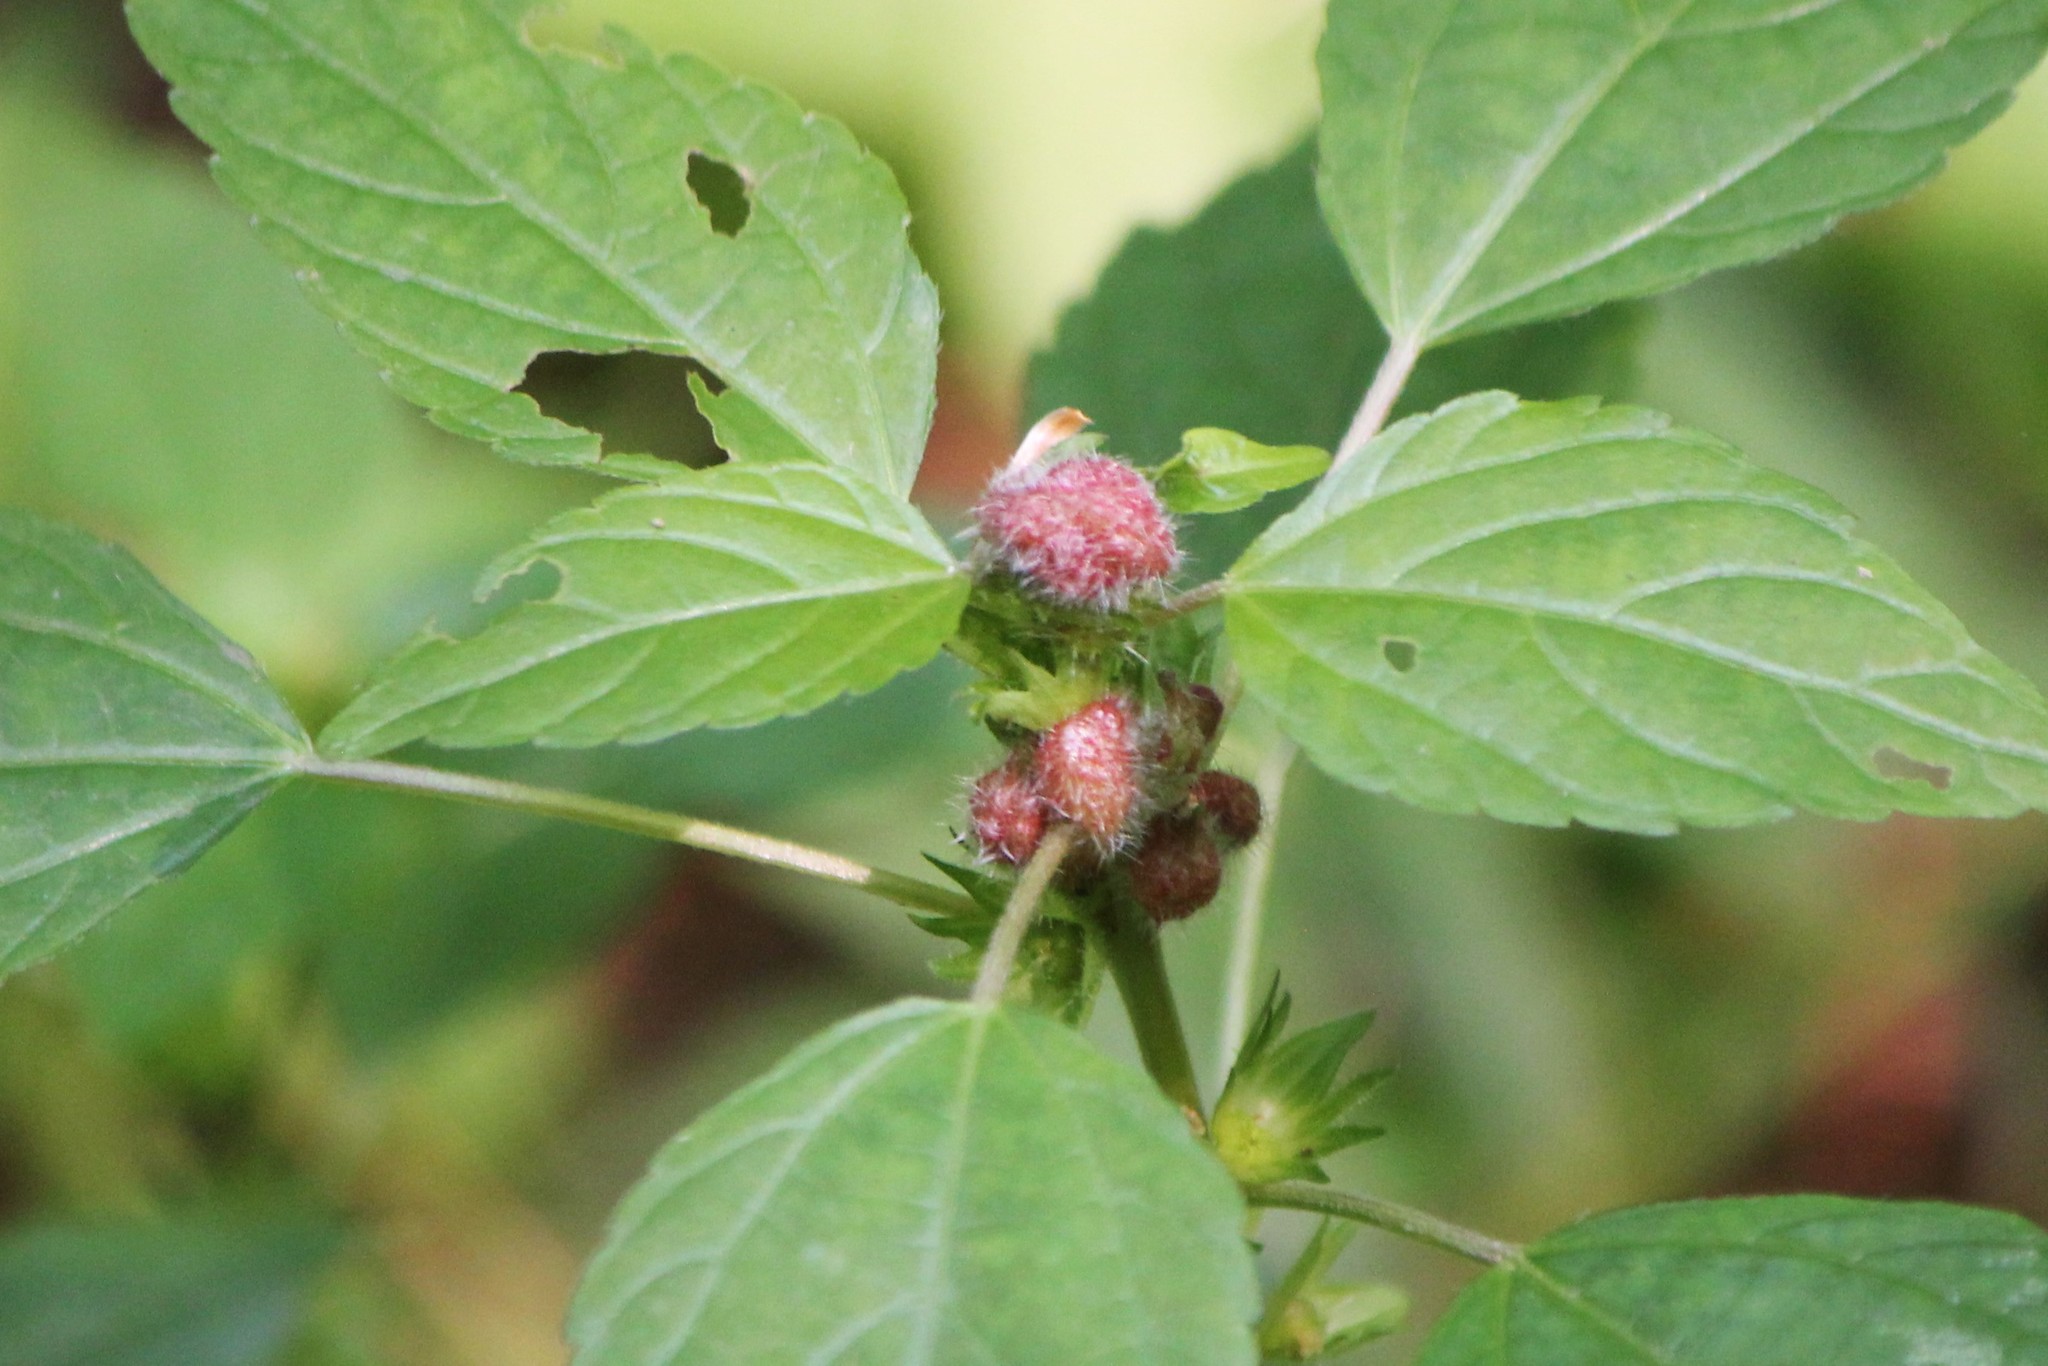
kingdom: Animalia
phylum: Arthropoda
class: Insecta
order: Diptera
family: Cecidomyiidae
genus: Resseliella
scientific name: Resseliella globosa
